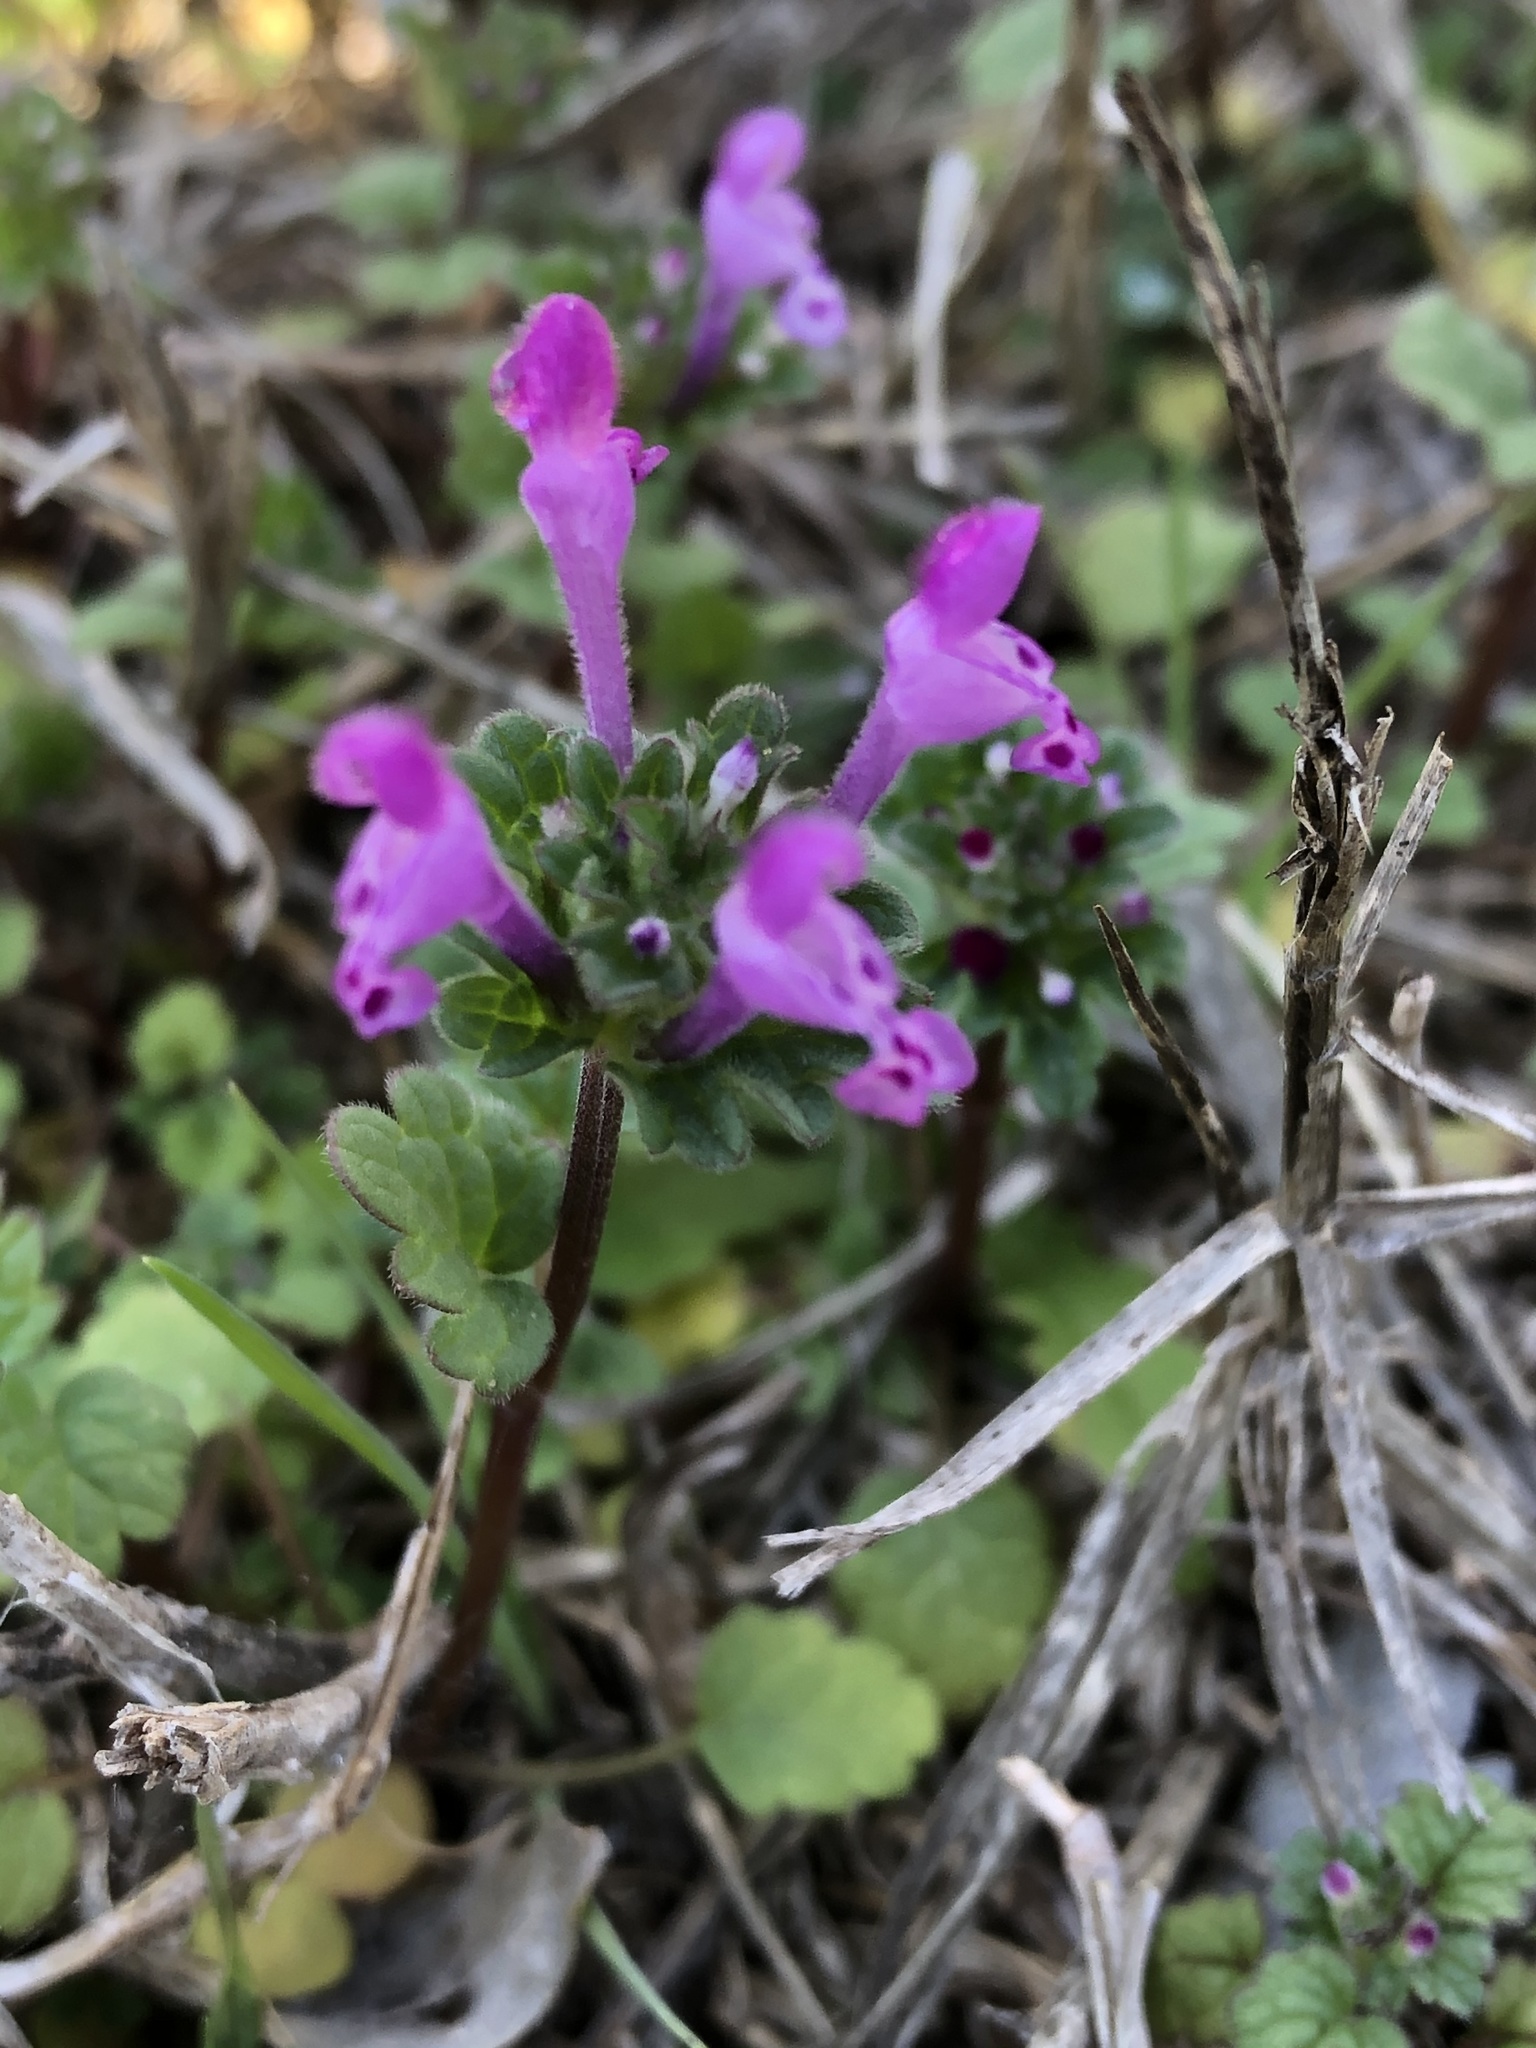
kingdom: Plantae
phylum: Tracheophyta
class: Magnoliopsida
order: Lamiales
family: Lamiaceae
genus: Lamium
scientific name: Lamium amplexicaule
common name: Henbit dead-nettle
